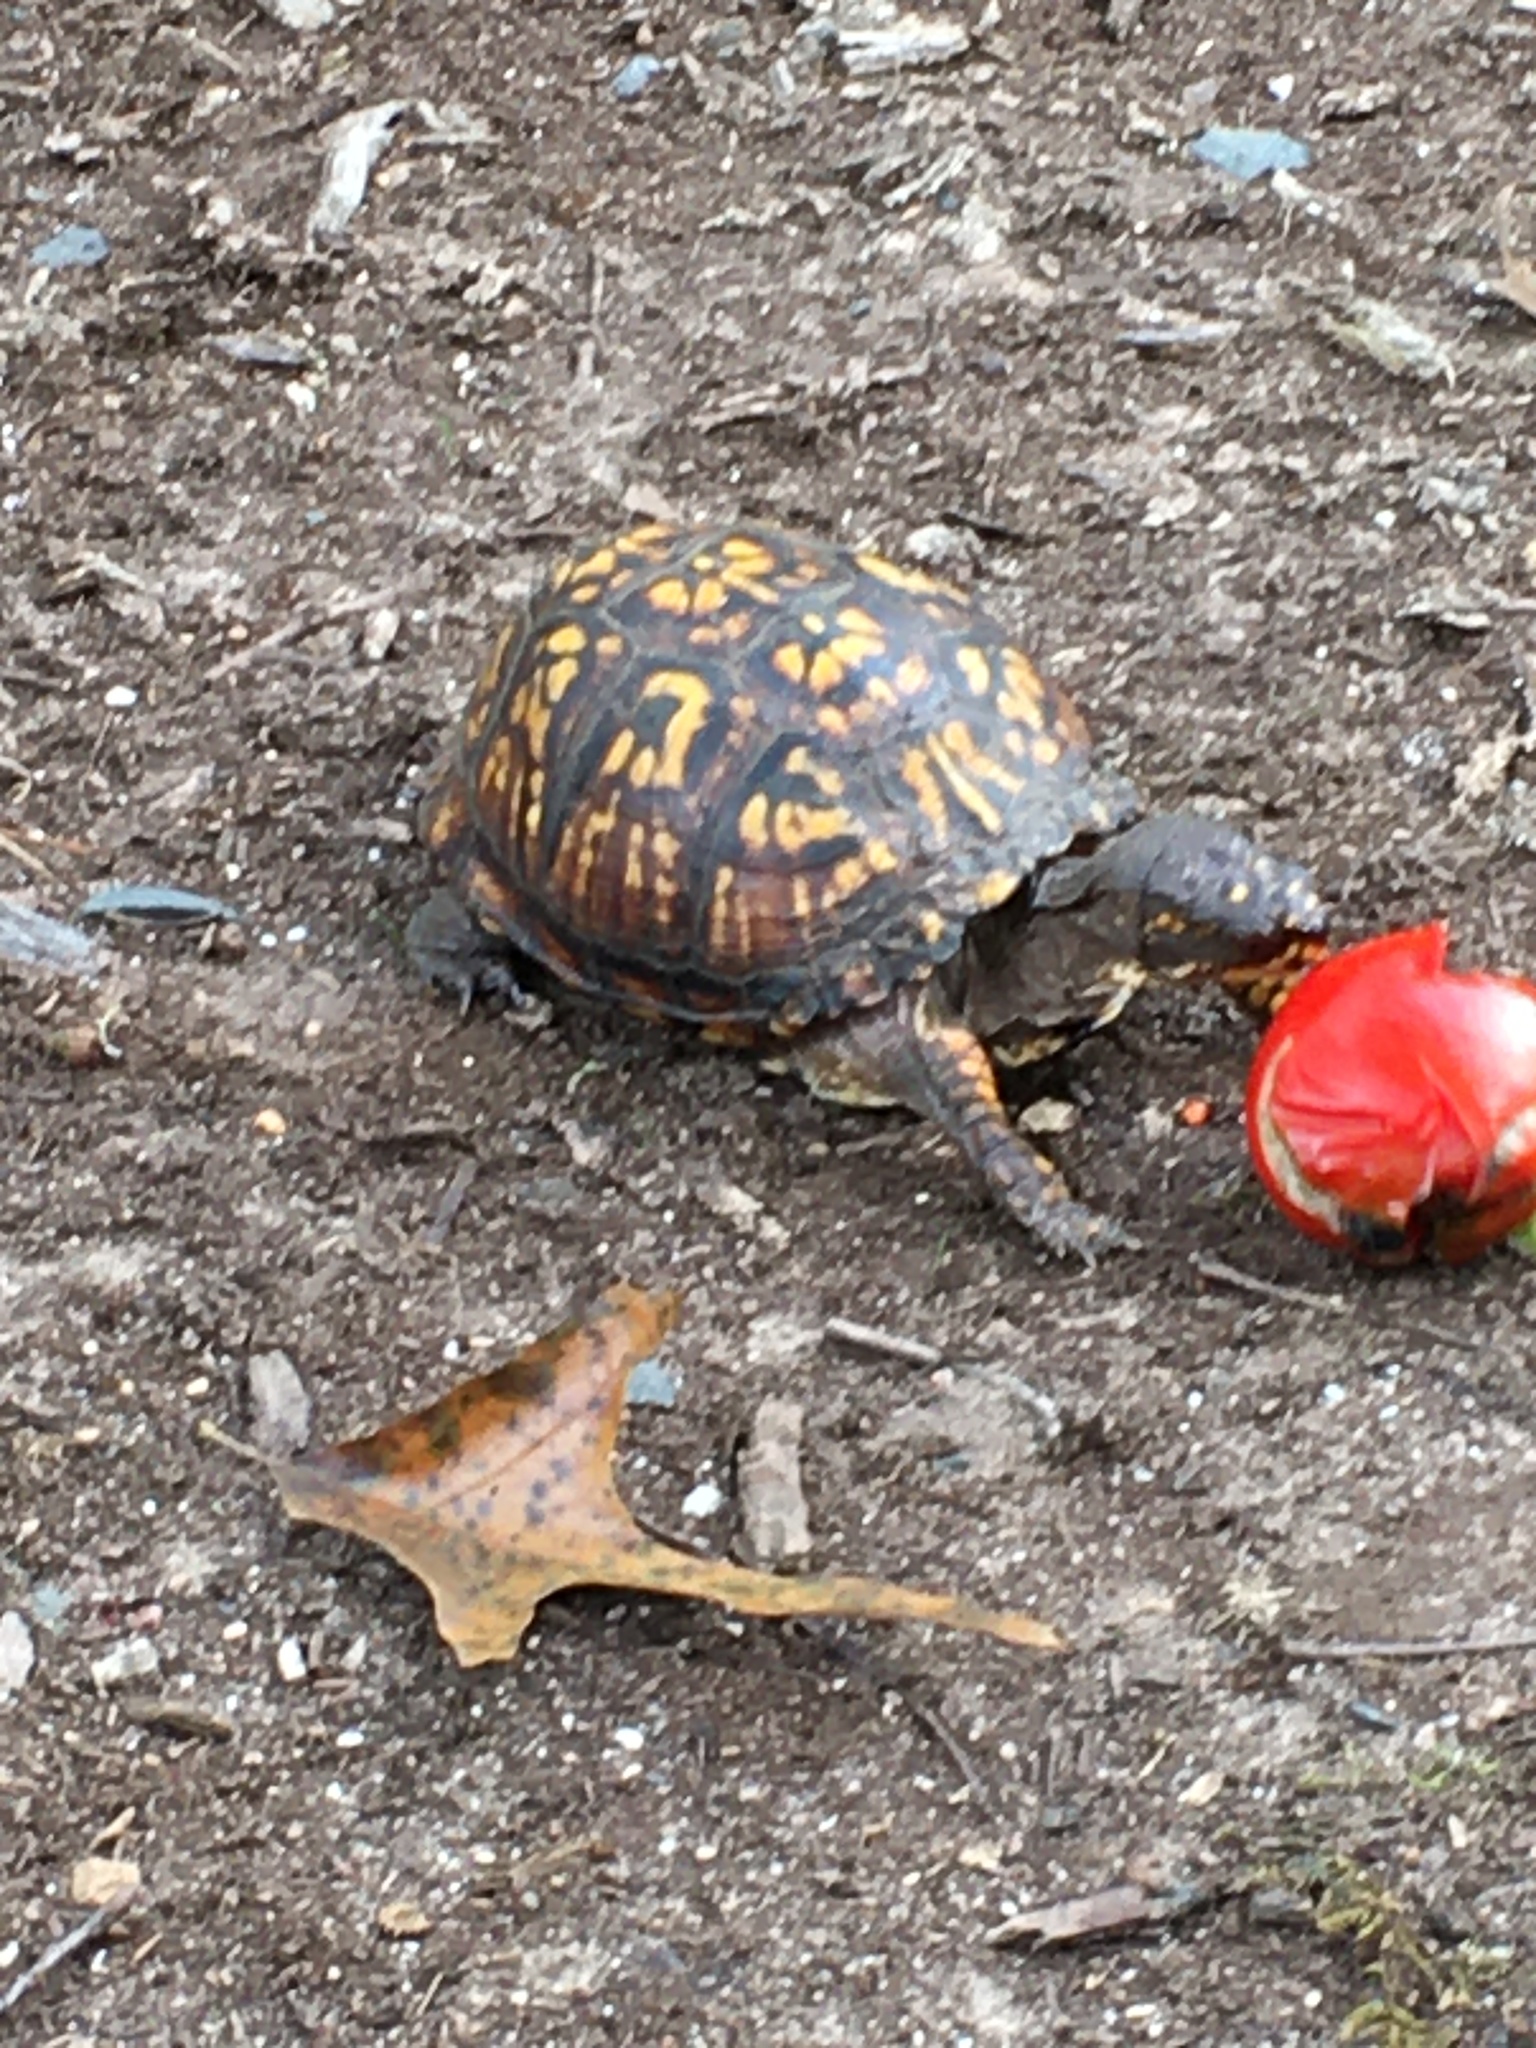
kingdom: Animalia
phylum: Chordata
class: Testudines
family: Emydidae
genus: Terrapene
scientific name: Terrapene carolina
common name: Common box turtle
